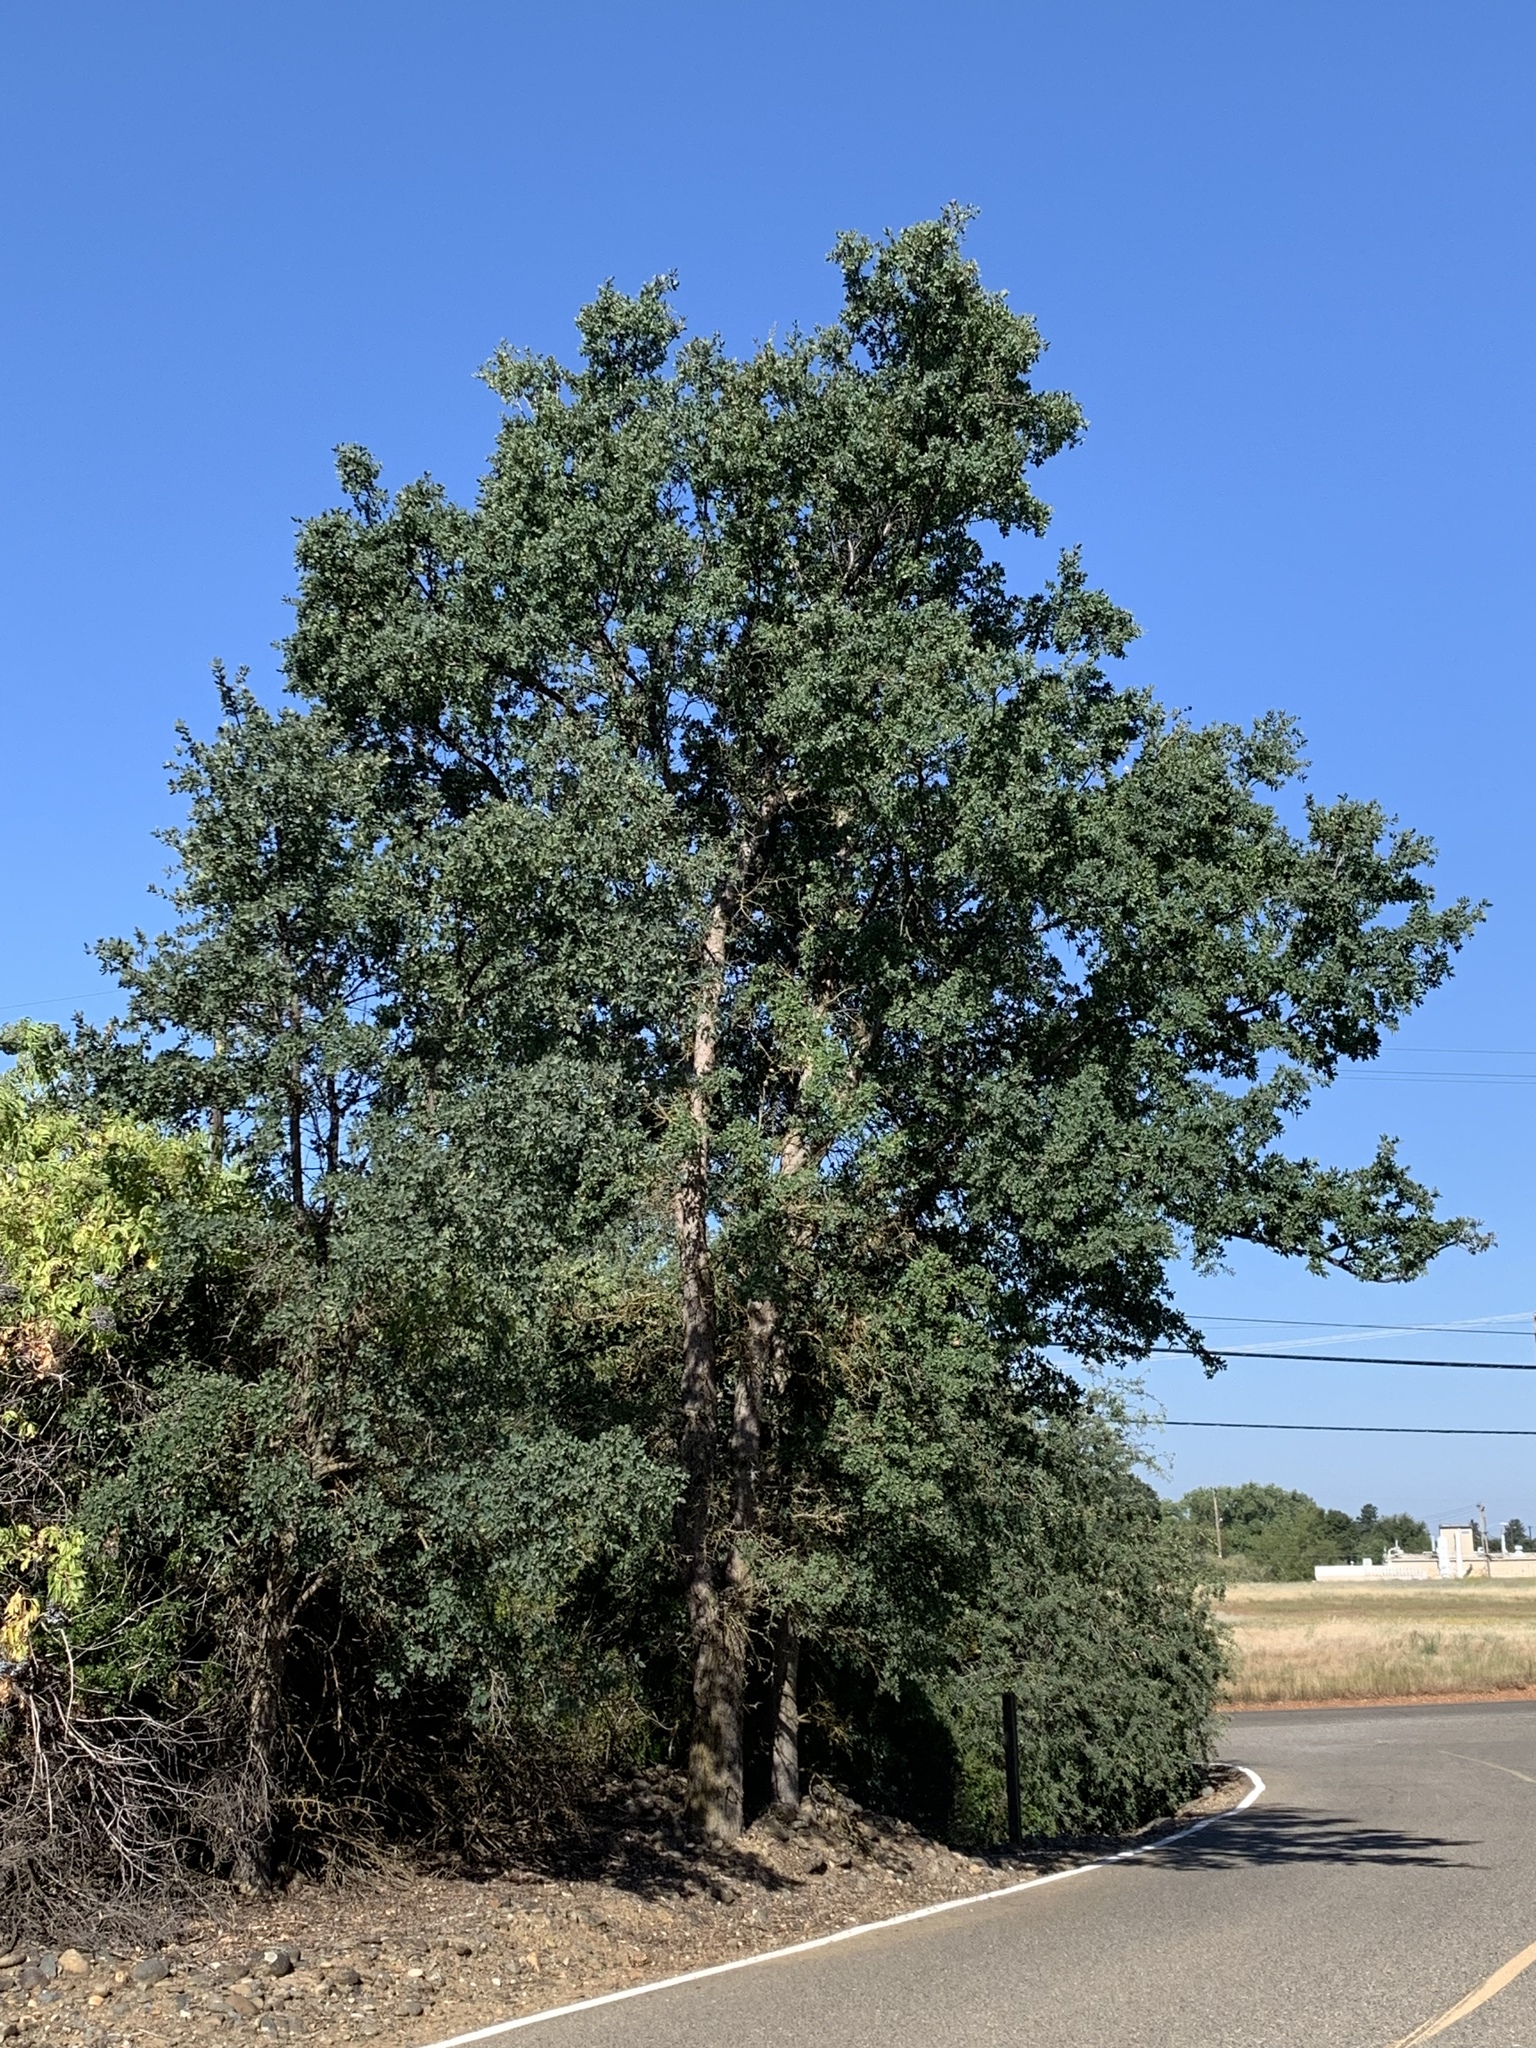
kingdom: Plantae
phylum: Tracheophyta
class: Magnoliopsida
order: Fagales
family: Fagaceae
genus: Quercus
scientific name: Quercus douglasii
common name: Blue oak
